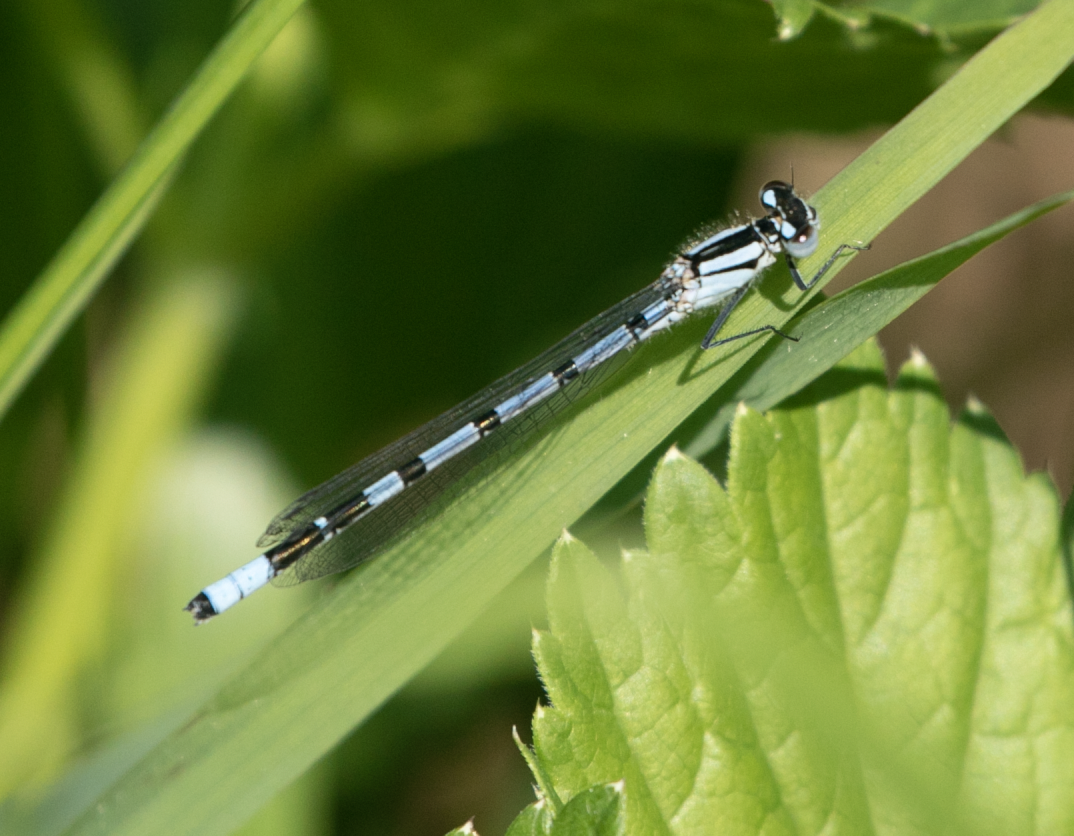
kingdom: Animalia
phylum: Arthropoda
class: Insecta
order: Odonata
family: Coenagrionidae
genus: Enallagma
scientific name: Enallagma cyathigerum
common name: Common blue damselfly
